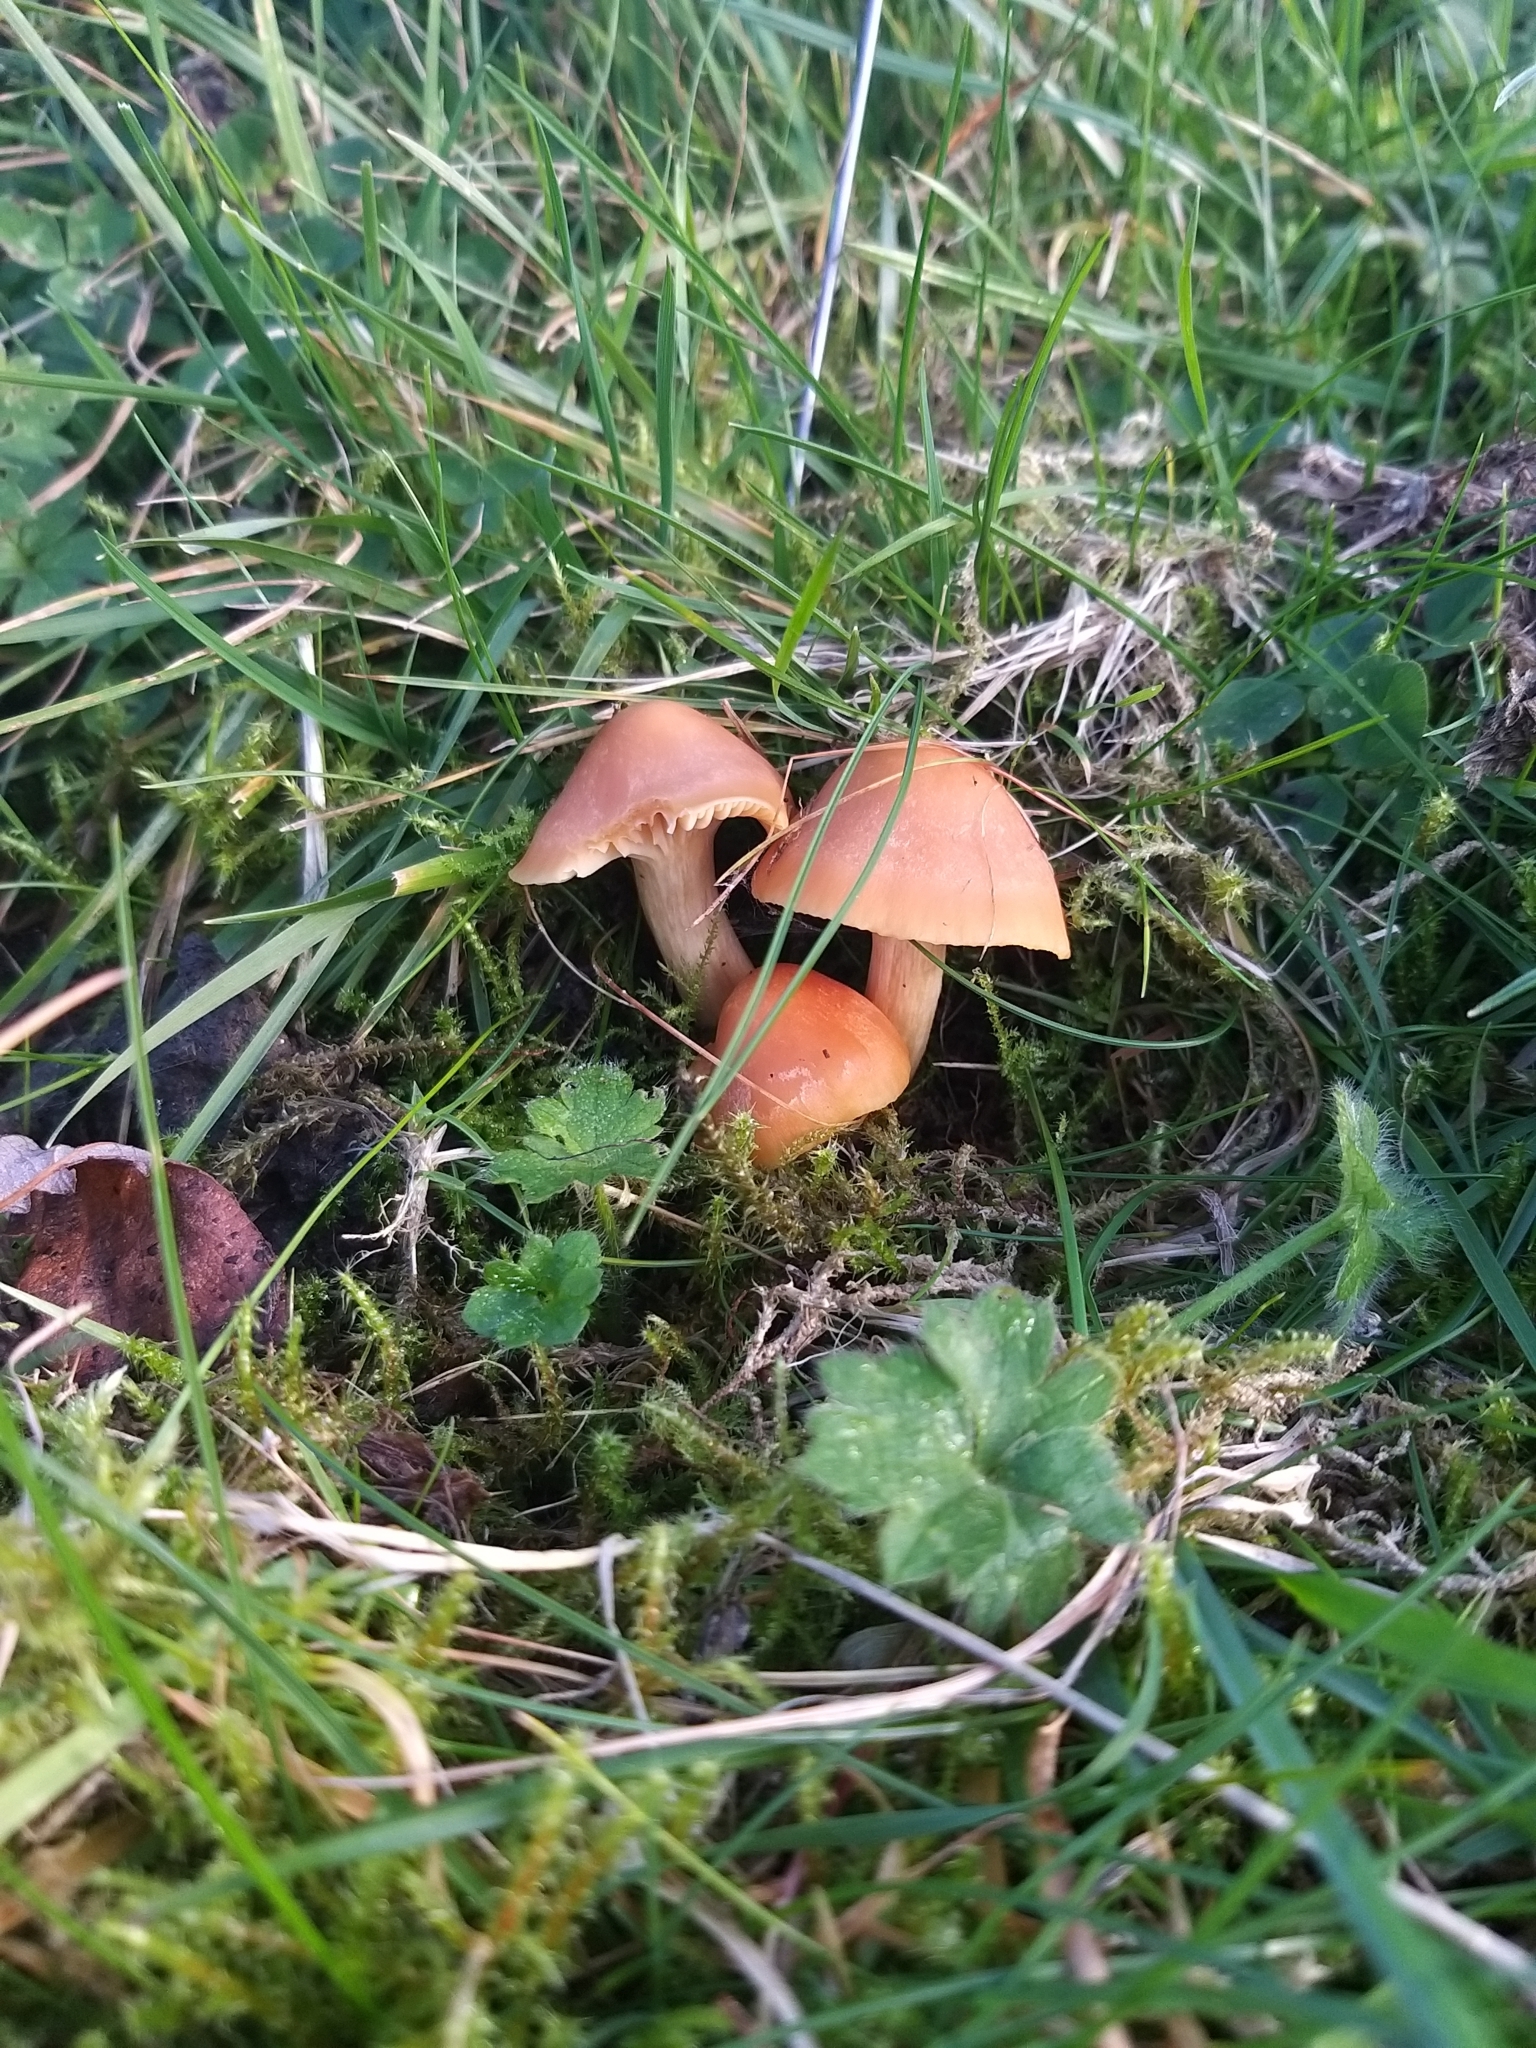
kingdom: Fungi
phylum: Basidiomycota
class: Agaricomycetes
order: Agaricales
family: Hygrophoraceae
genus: Cuphophyllus
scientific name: Cuphophyllus pratensis
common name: Meadow waxcap
